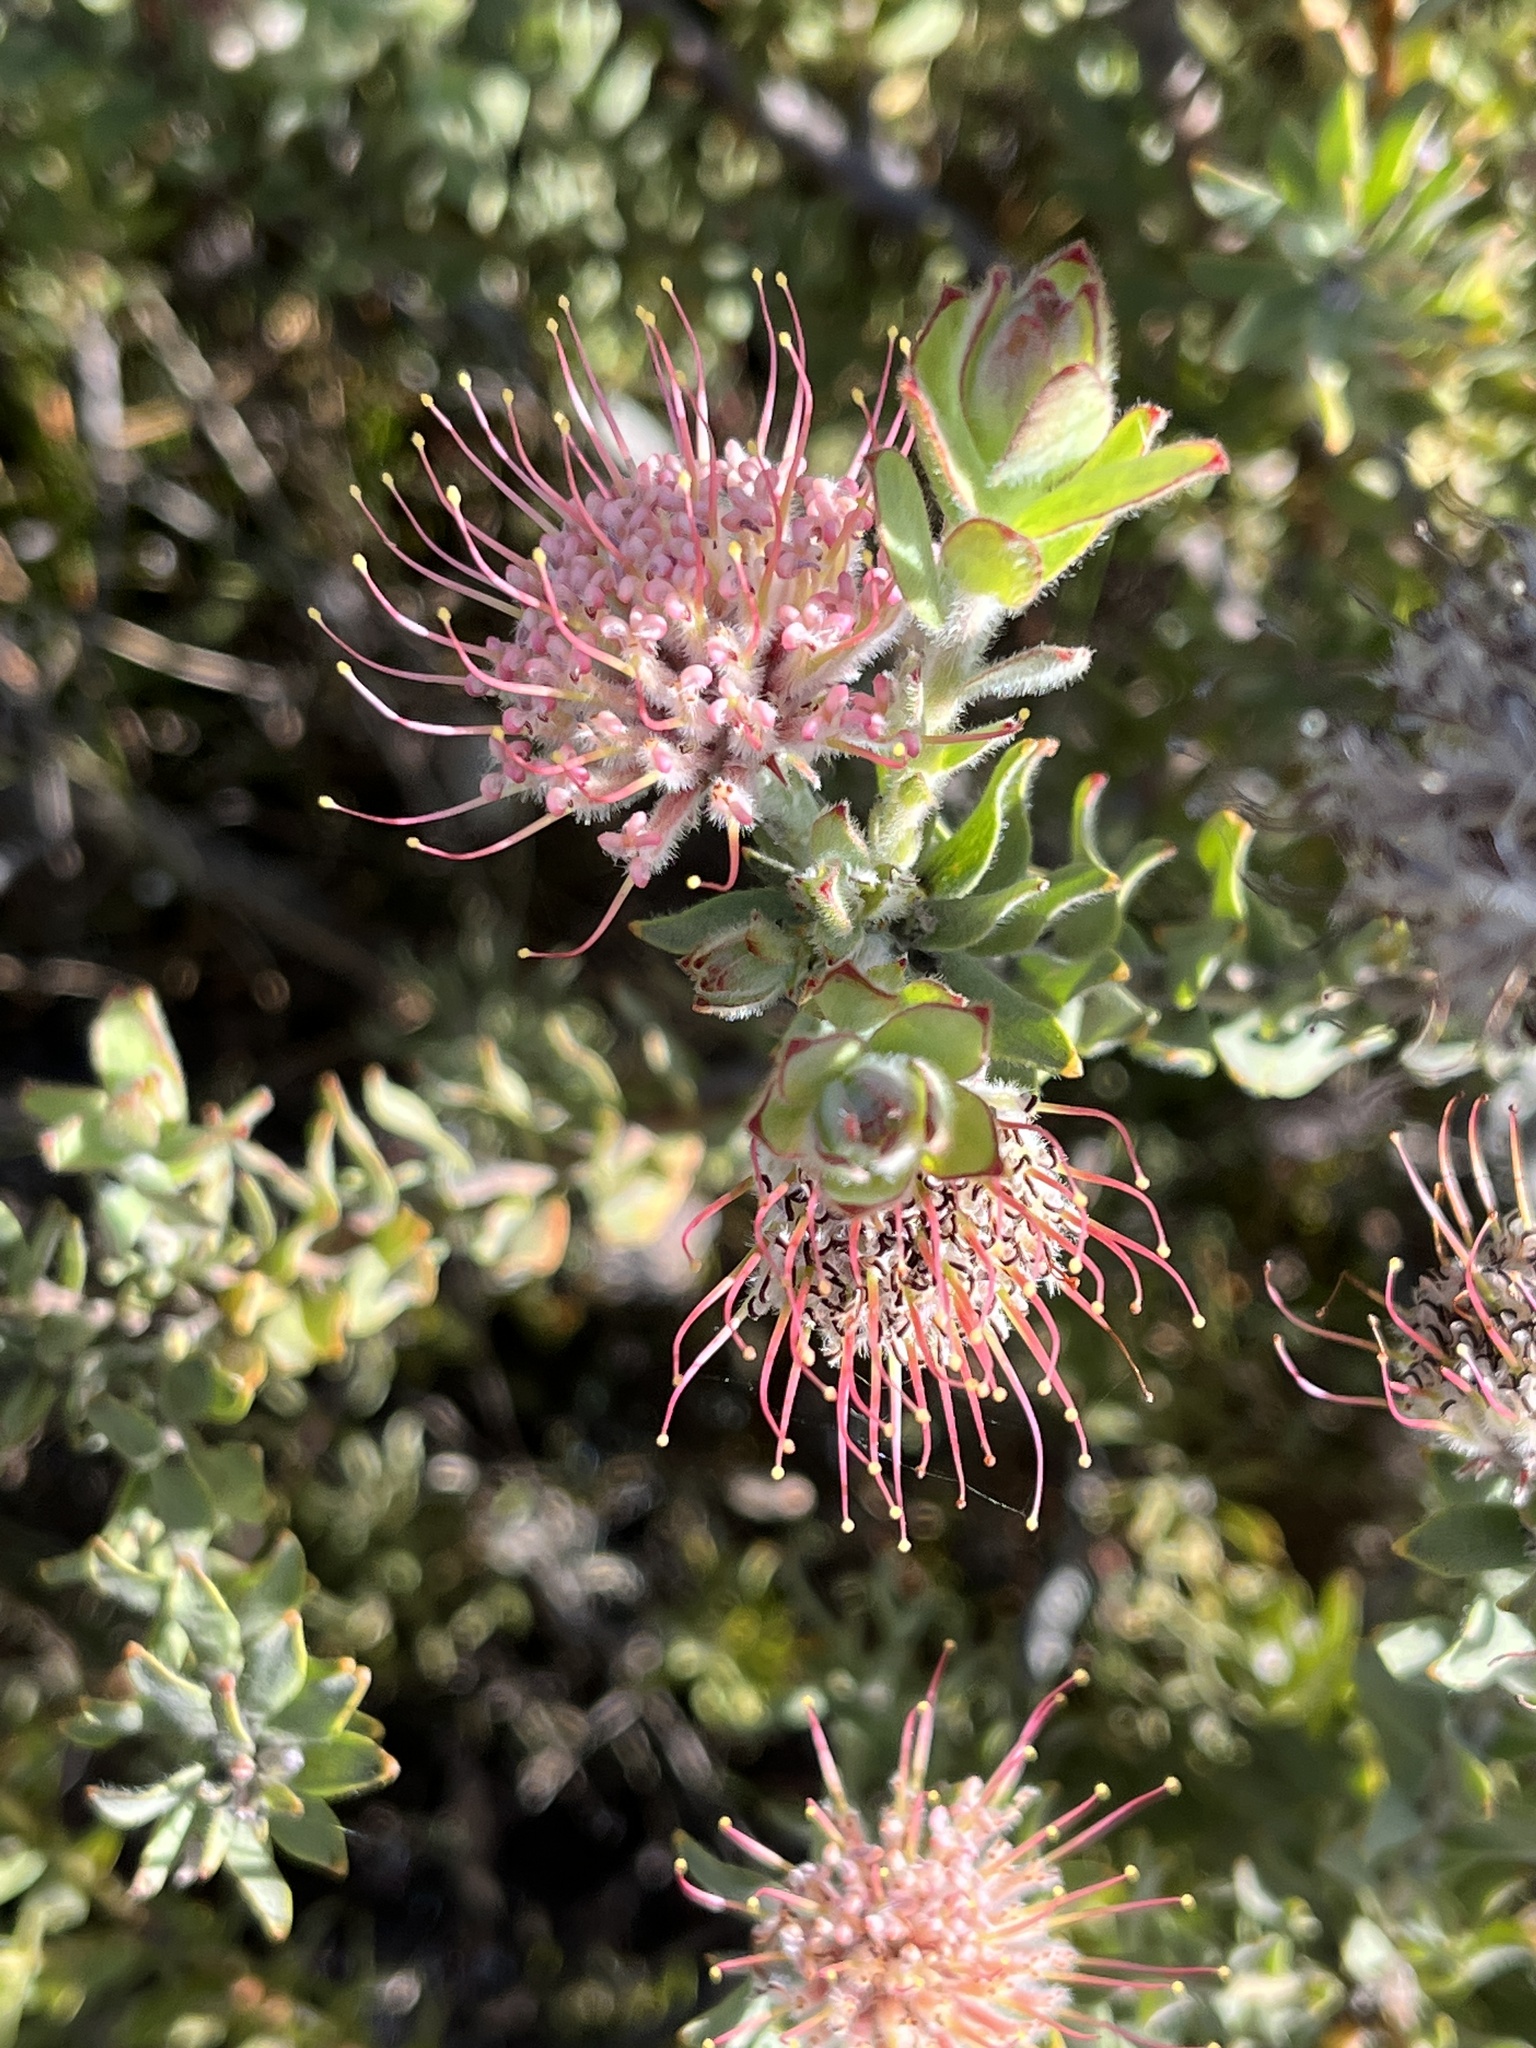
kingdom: Plantae
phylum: Tracheophyta
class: Magnoliopsida
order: Proteales
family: Proteaceae
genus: Leucospermum
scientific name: Leucospermum calligerum
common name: Arid pincushion
